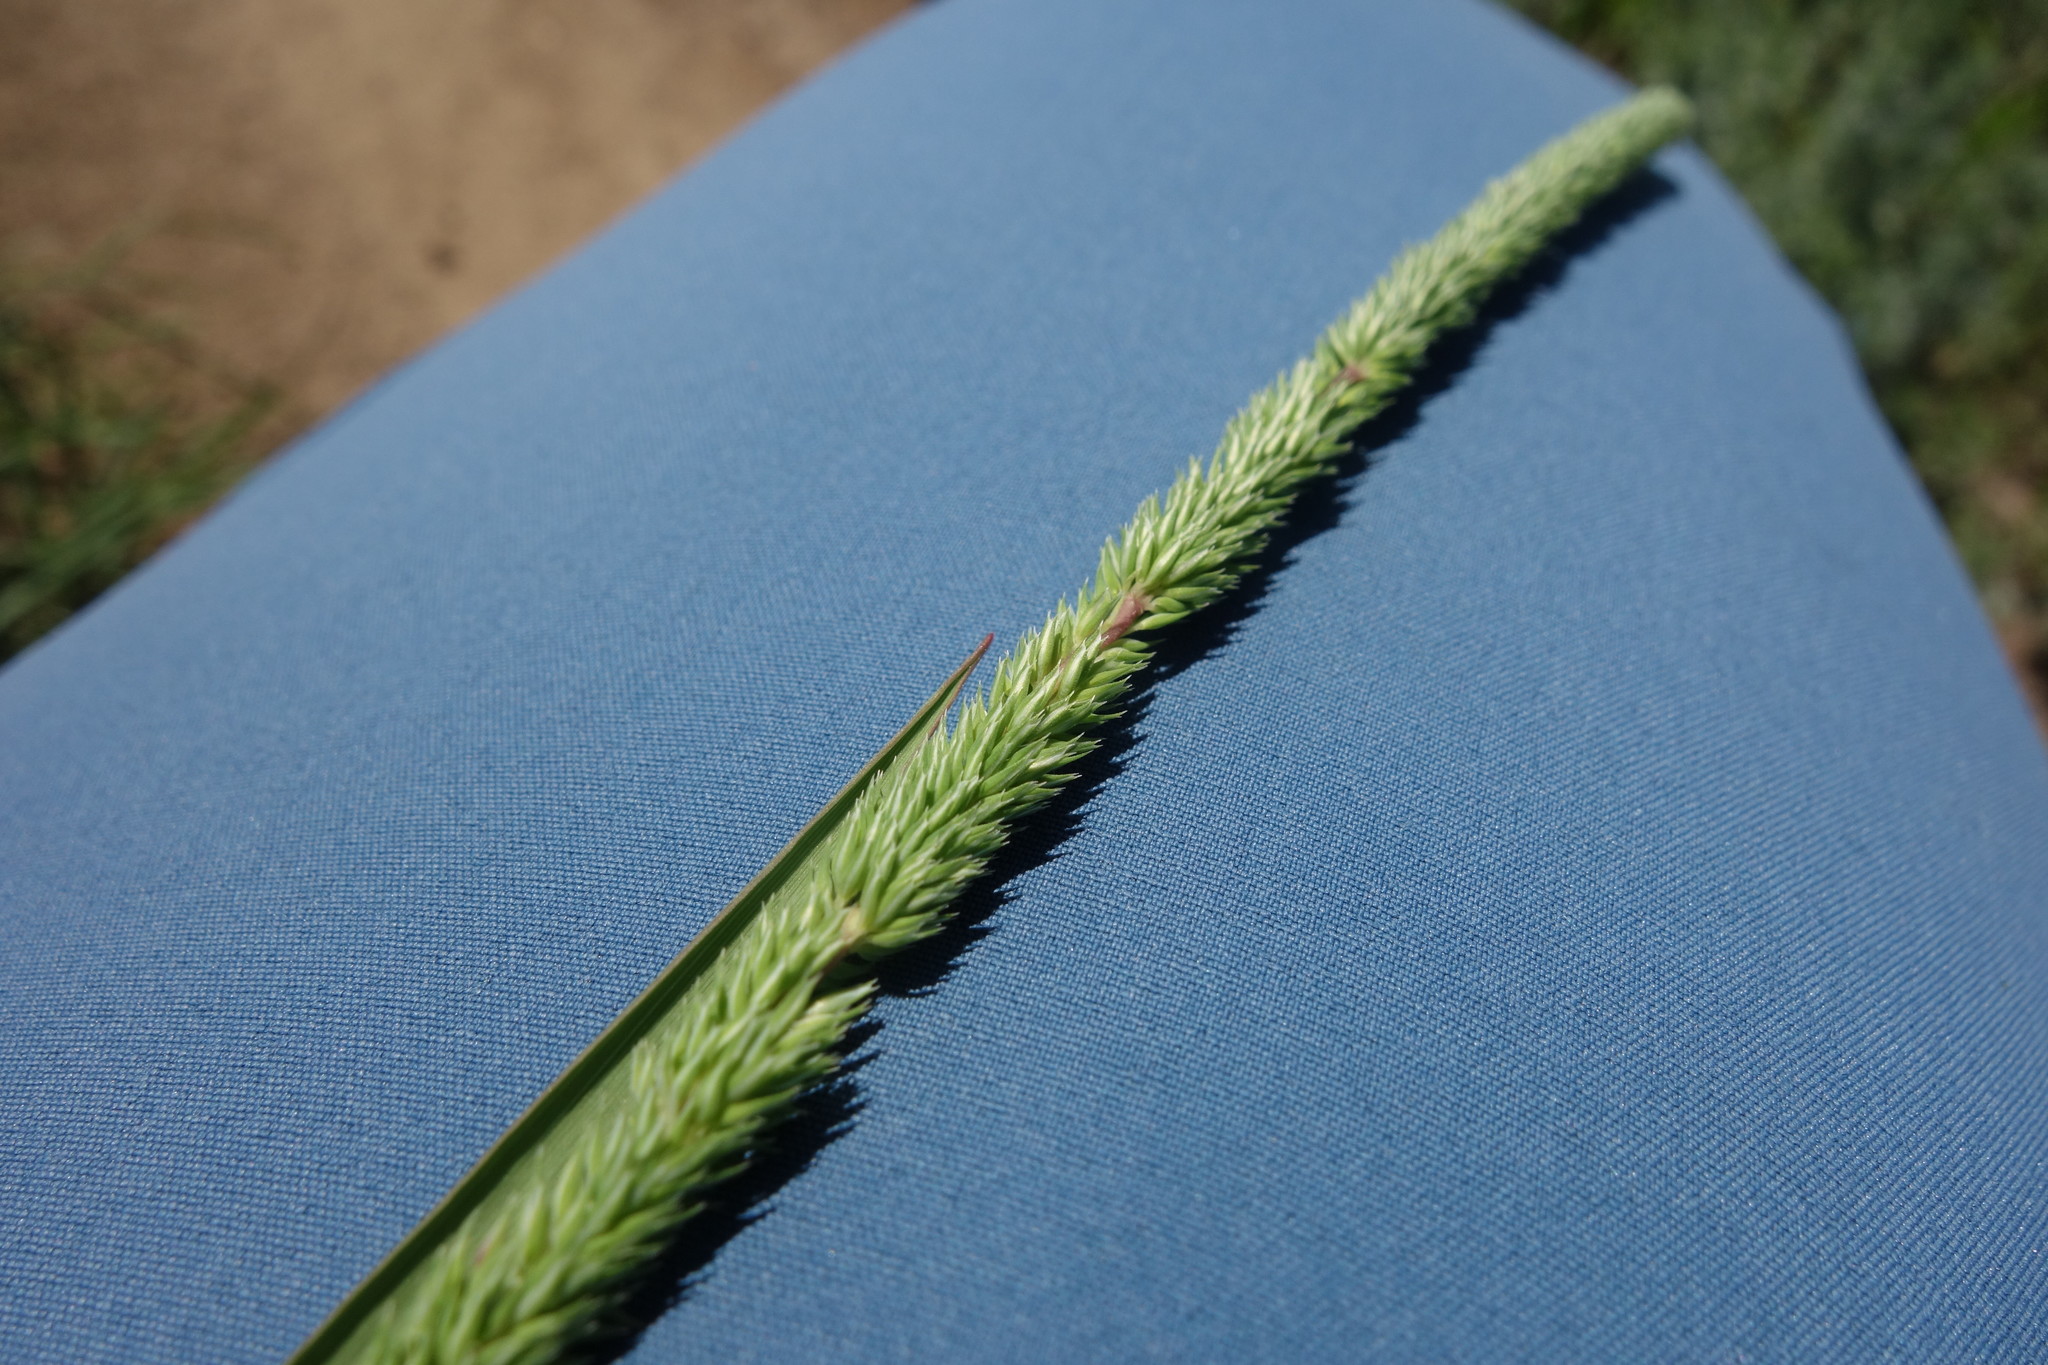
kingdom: Plantae
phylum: Tracheophyta
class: Liliopsida
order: Poales
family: Poaceae
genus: Phleum
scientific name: Phleum phleoides
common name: Purple-stem cat's-tail
